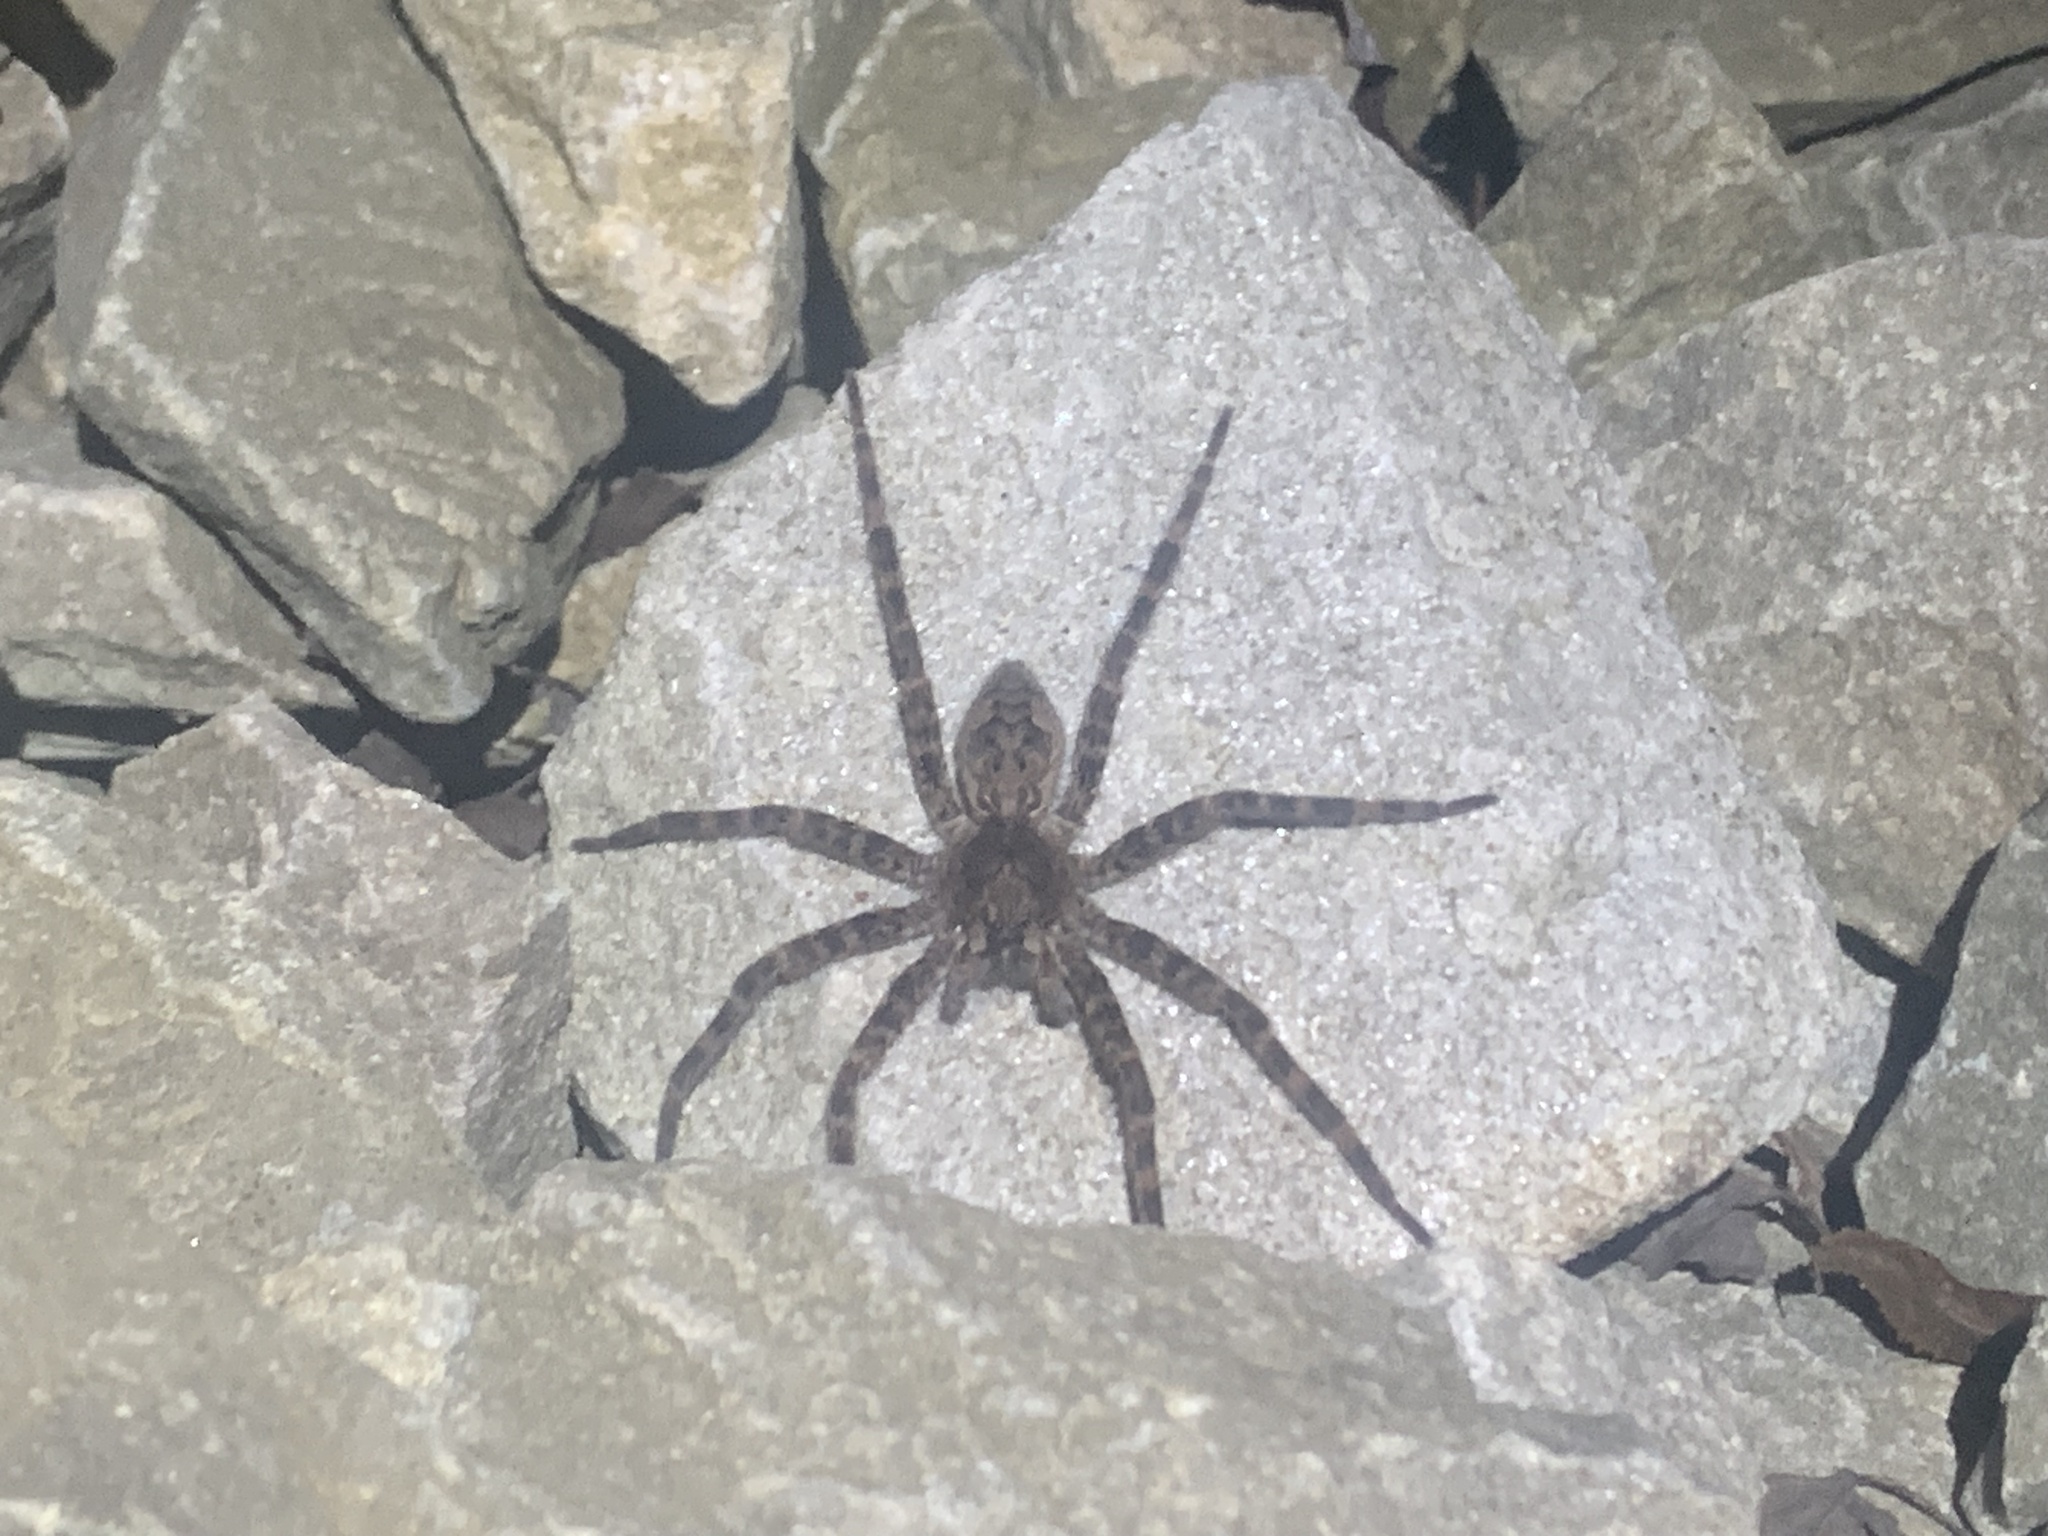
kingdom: Animalia
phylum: Arthropoda
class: Arachnida
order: Araneae
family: Pisauridae
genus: Dolomedes
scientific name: Dolomedes tenebrosus
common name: Dark fishing spider
